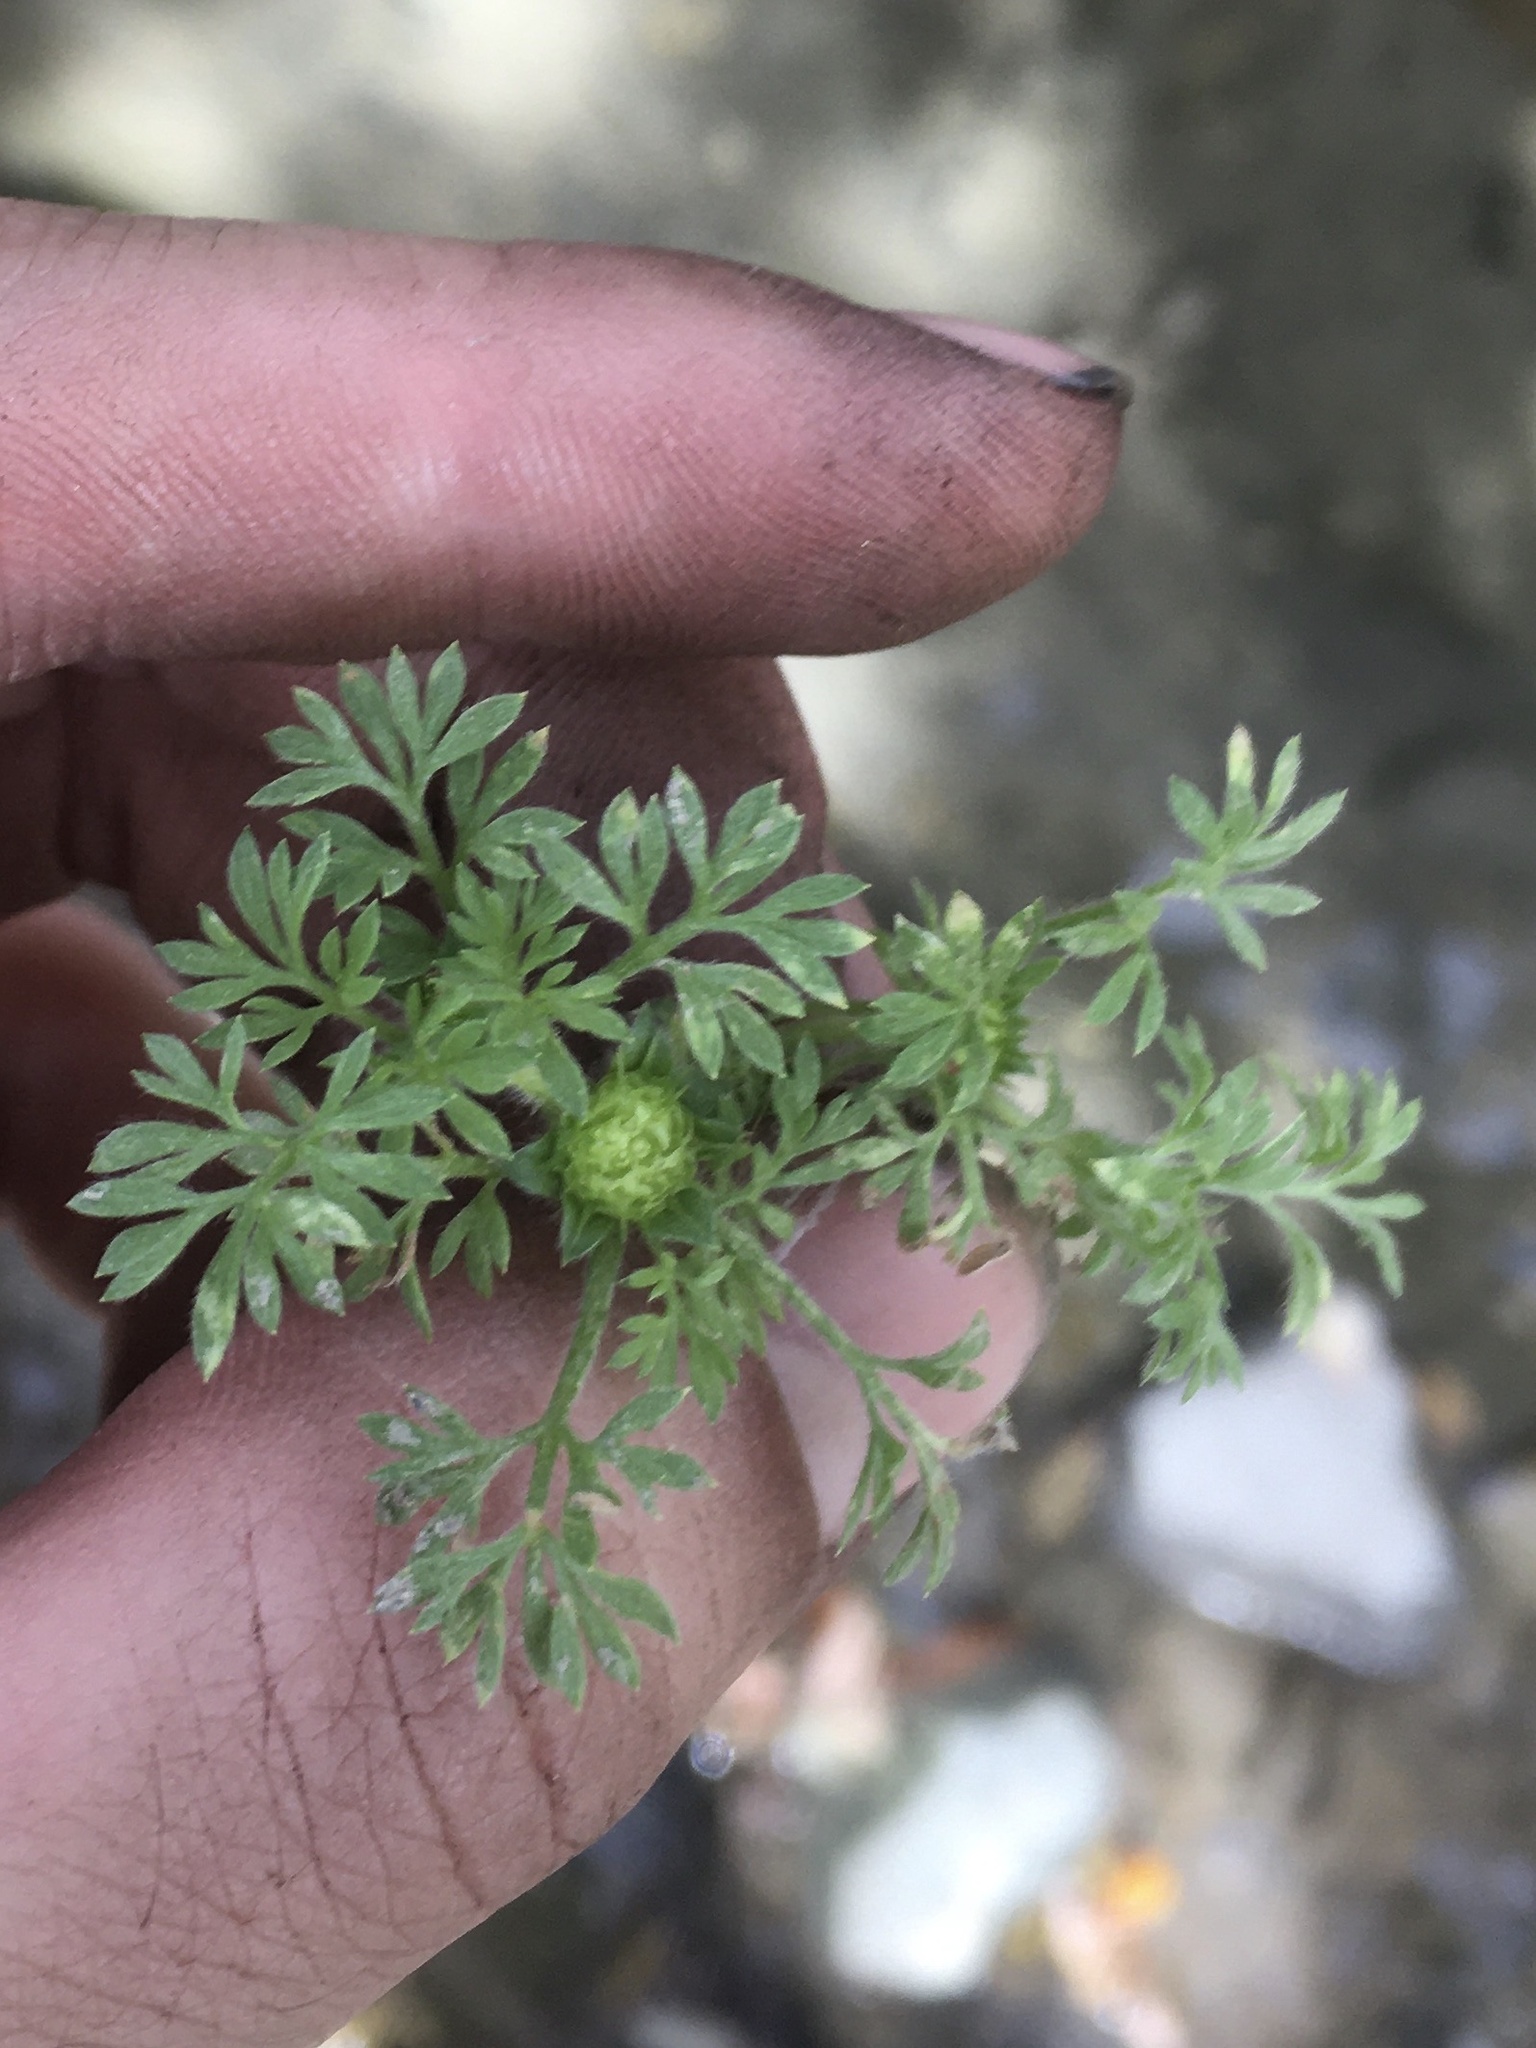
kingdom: Plantae
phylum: Tracheophyta
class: Magnoliopsida
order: Asterales
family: Asteraceae
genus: Soliva
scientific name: Soliva sessilis
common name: Field burrweed
